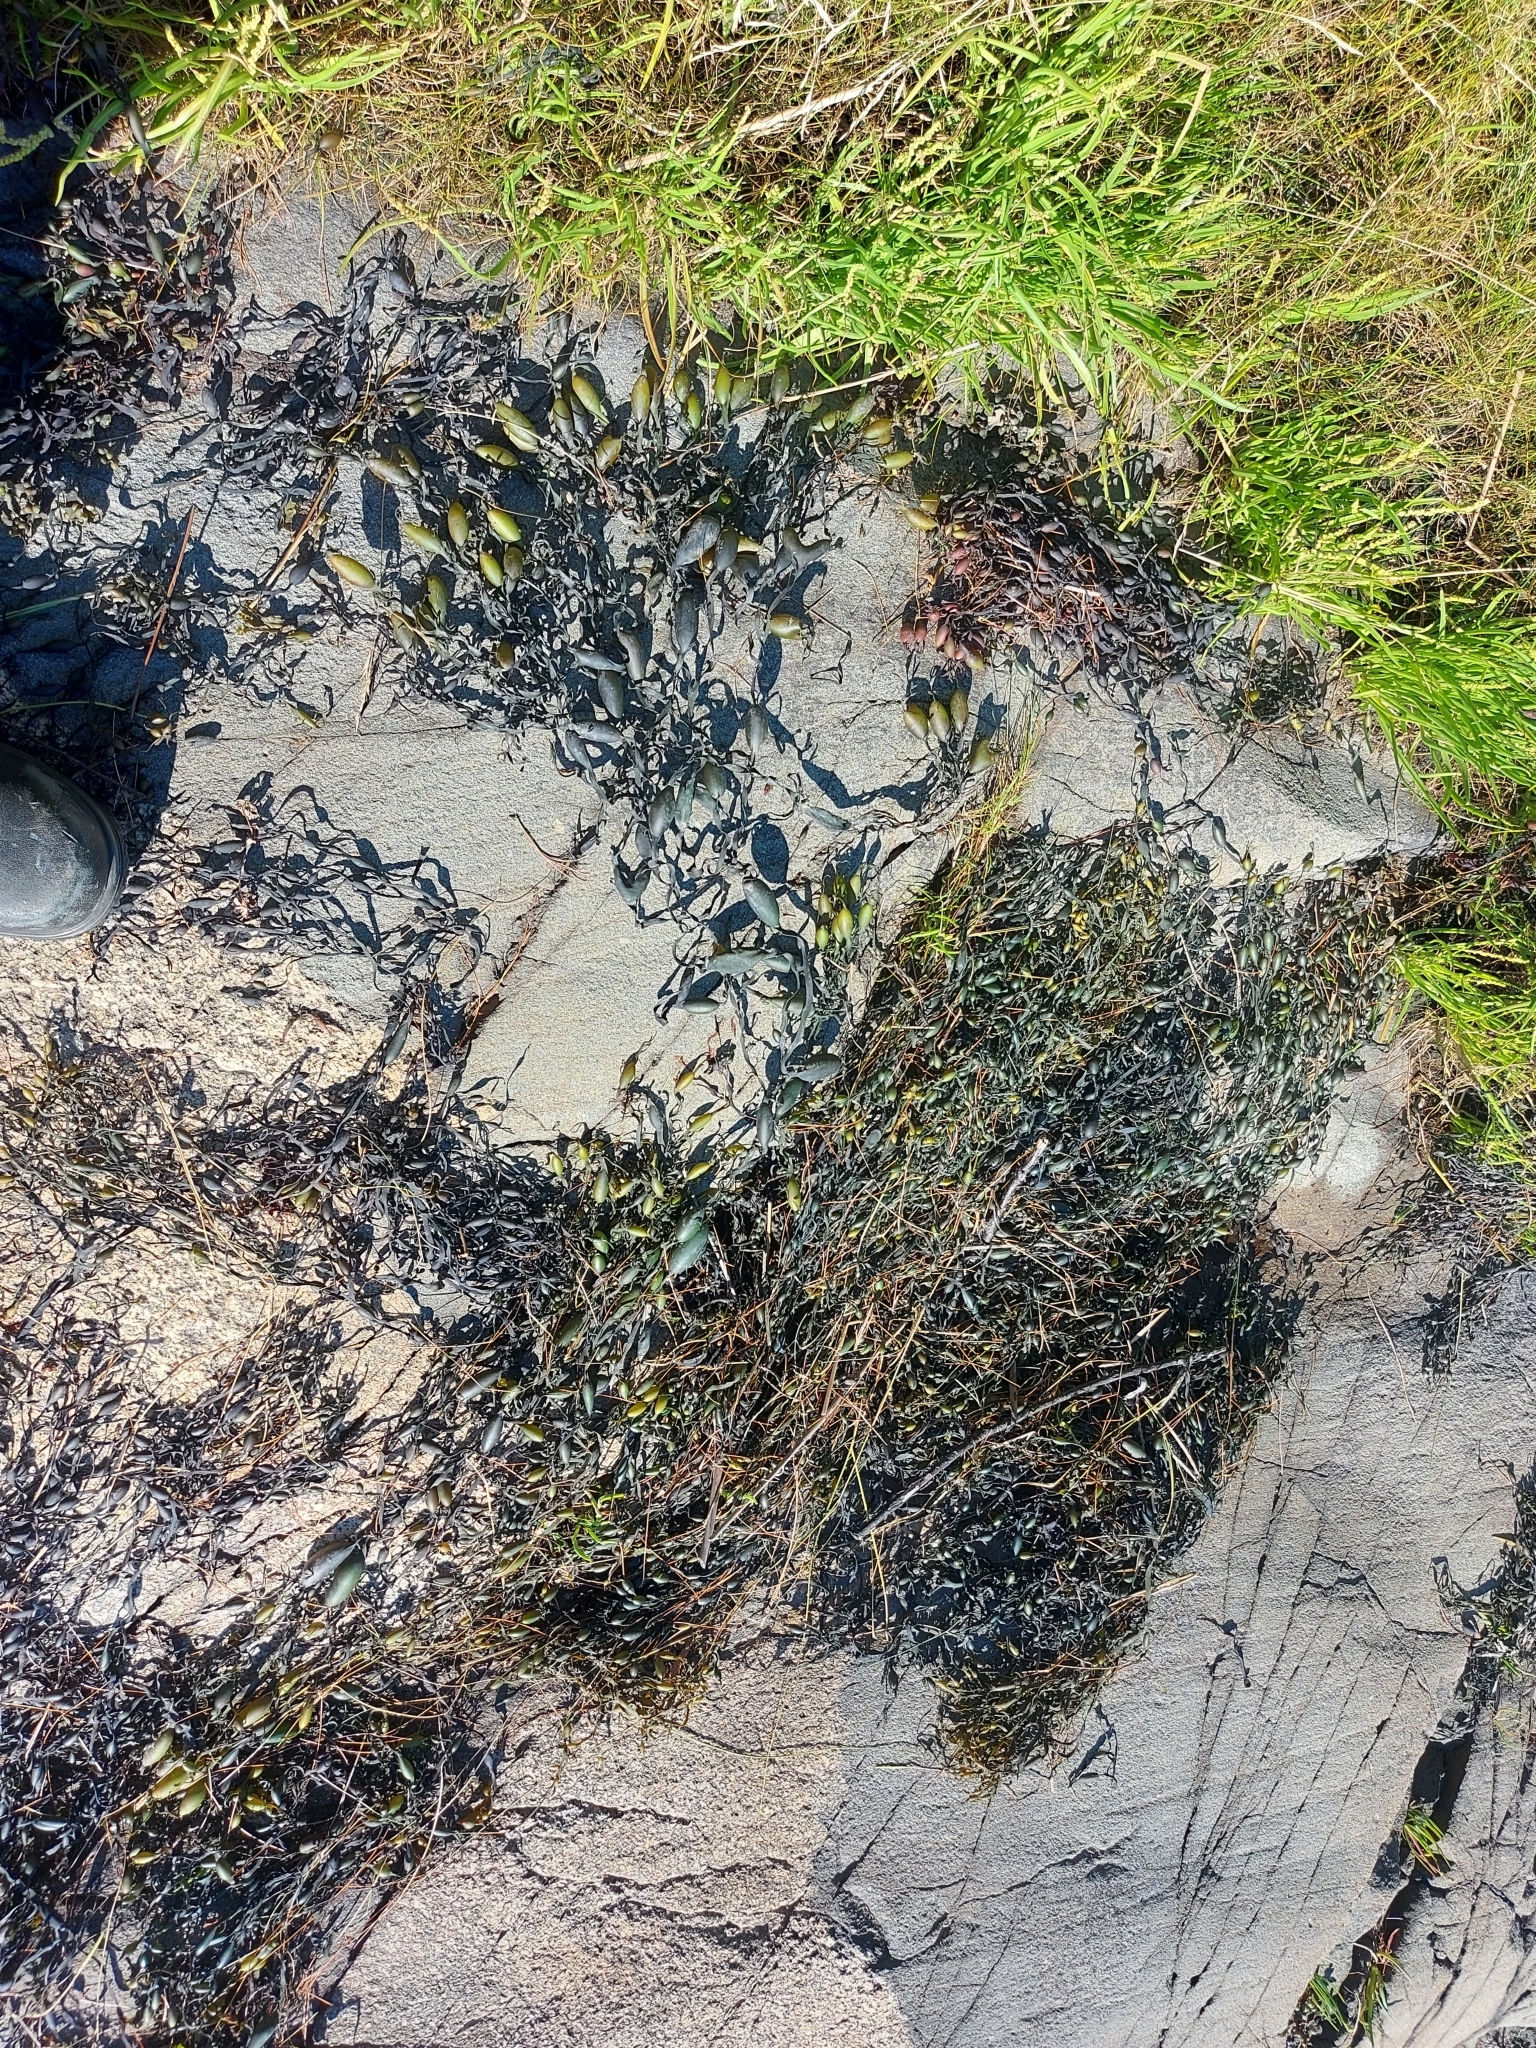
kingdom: Chromista
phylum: Ochrophyta
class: Phaeophyceae
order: Fucales
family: Fucaceae
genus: Ascophyllum
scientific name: Ascophyllum nodosum
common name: Knotted wrack
